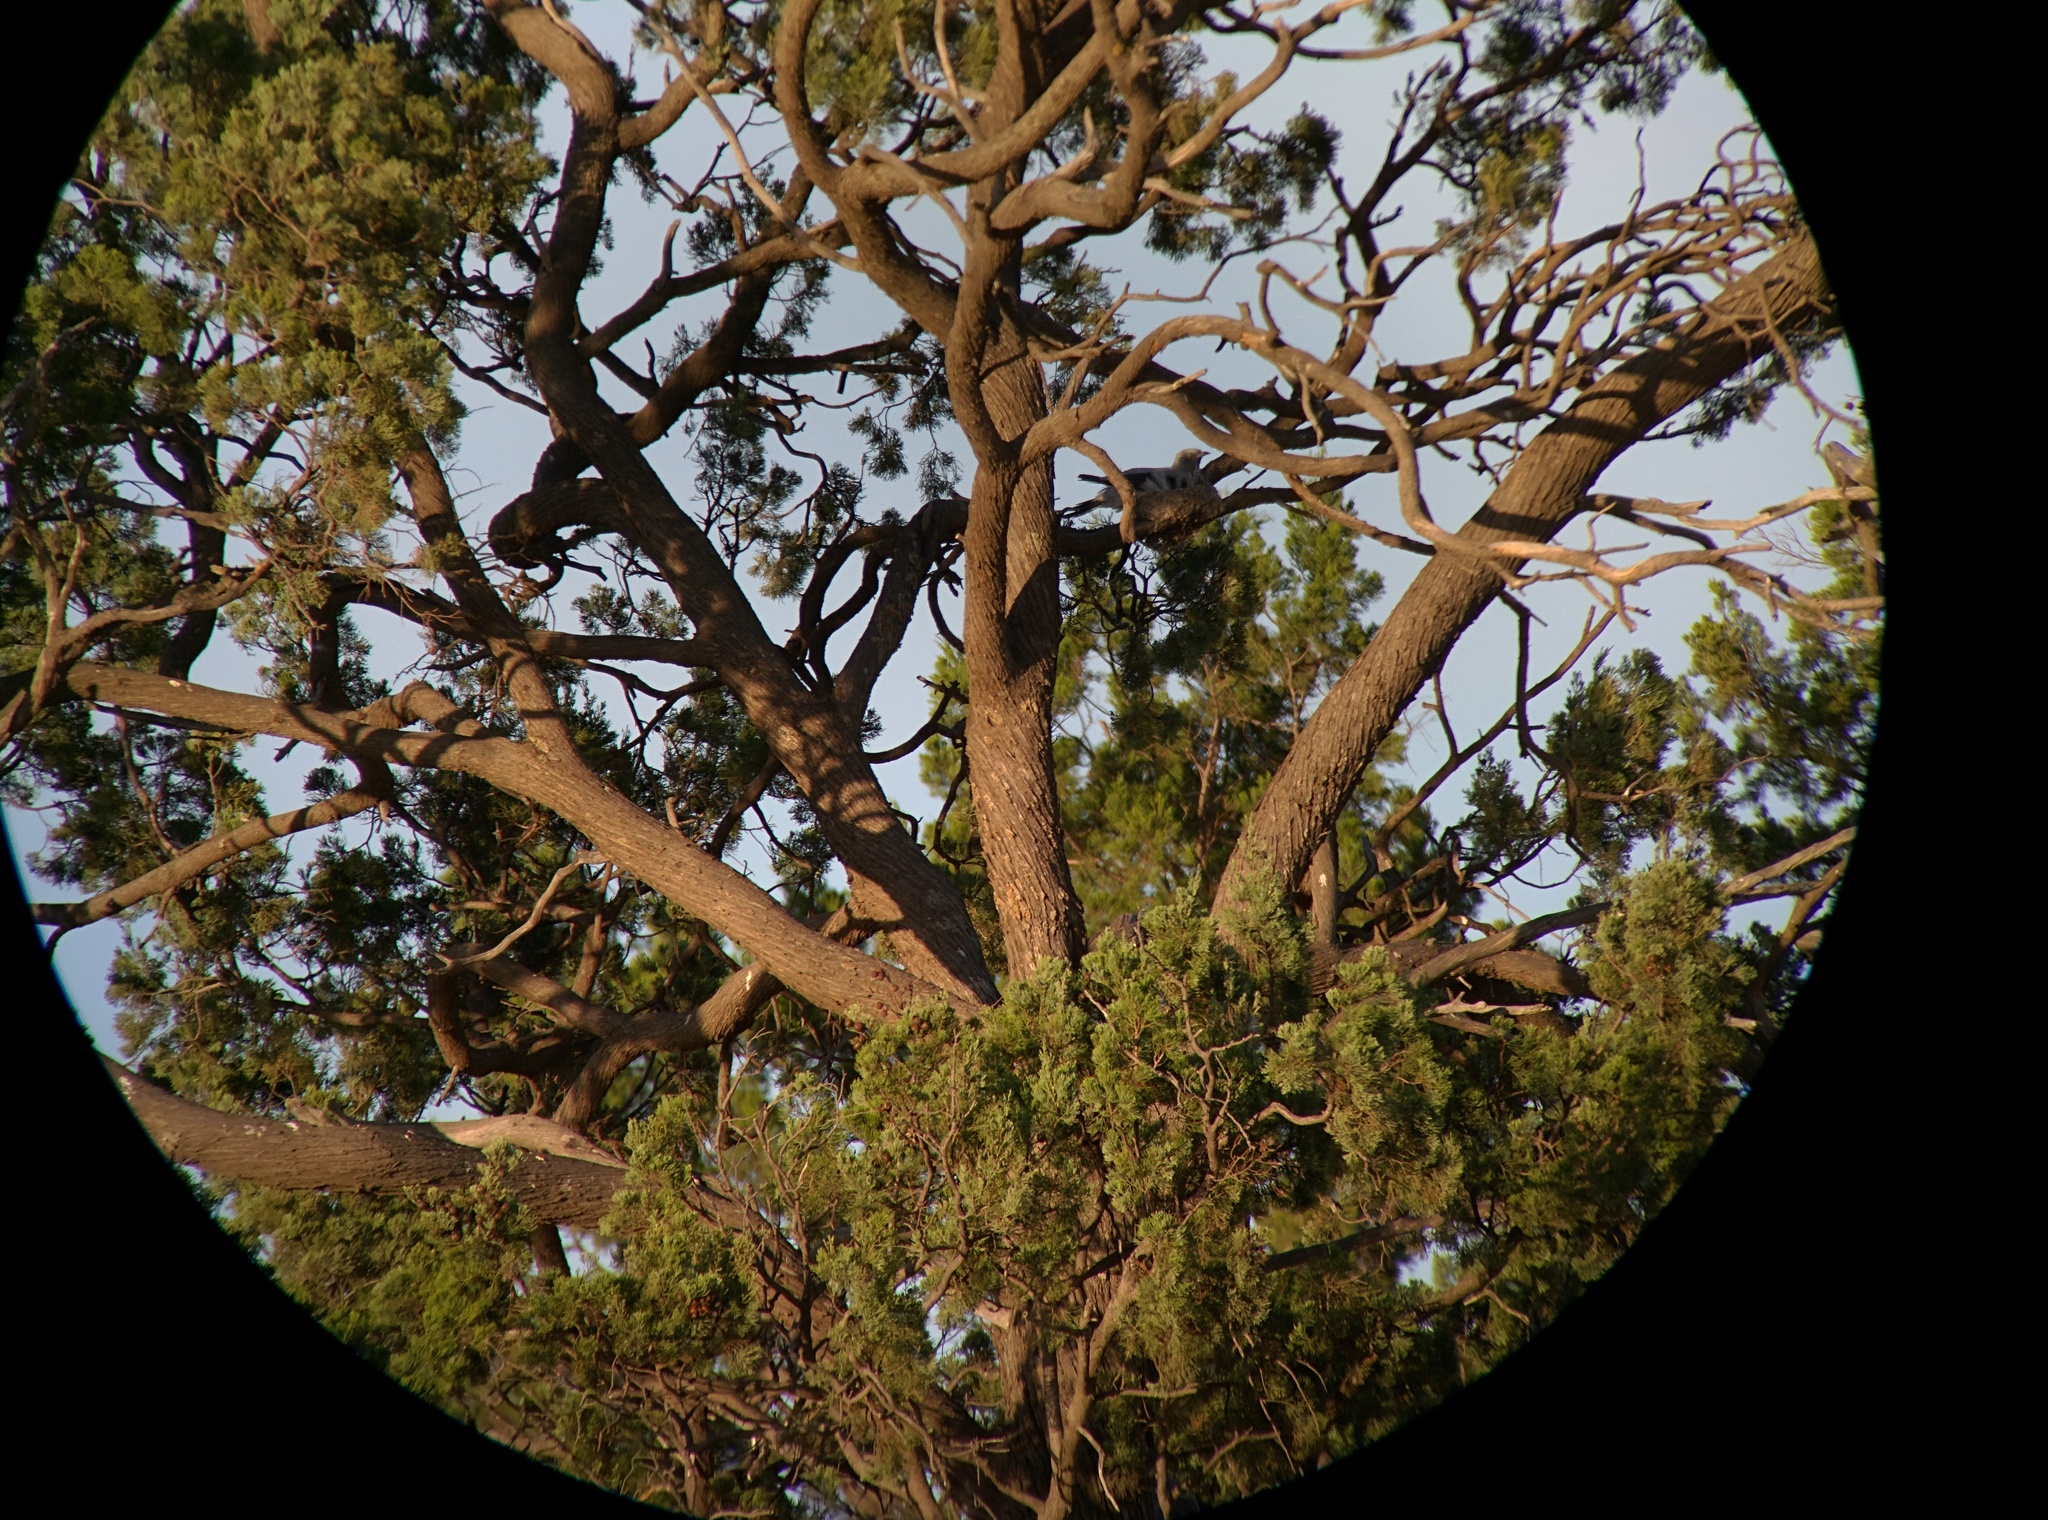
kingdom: Animalia
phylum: Chordata
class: Aves
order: Passeriformes
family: Campephagidae
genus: Coracina
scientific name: Coracina maxima
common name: Ground cuckooshrike
